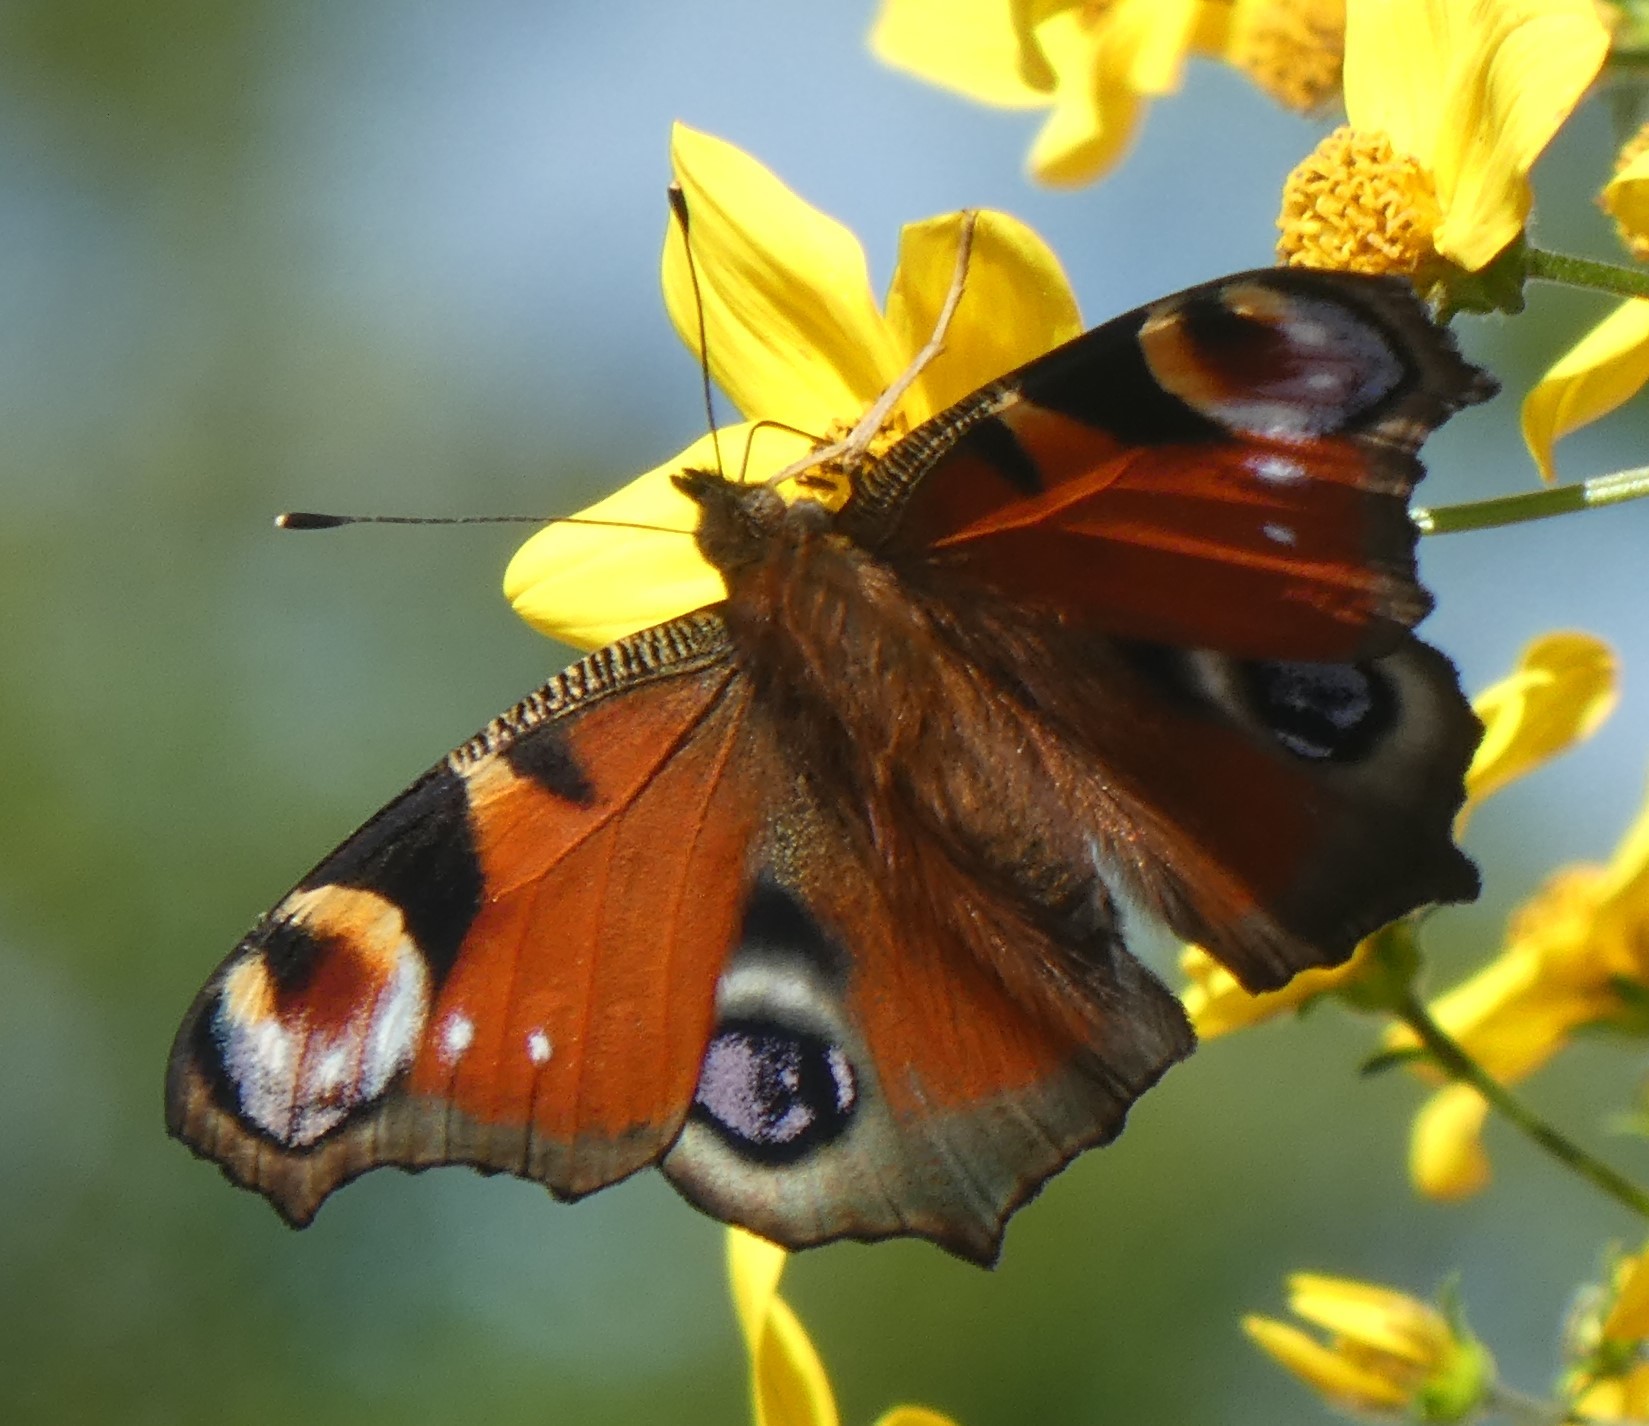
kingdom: Animalia
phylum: Arthropoda
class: Insecta
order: Lepidoptera
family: Nymphalidae
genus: Aglais
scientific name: Aglais io
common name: Peacock
